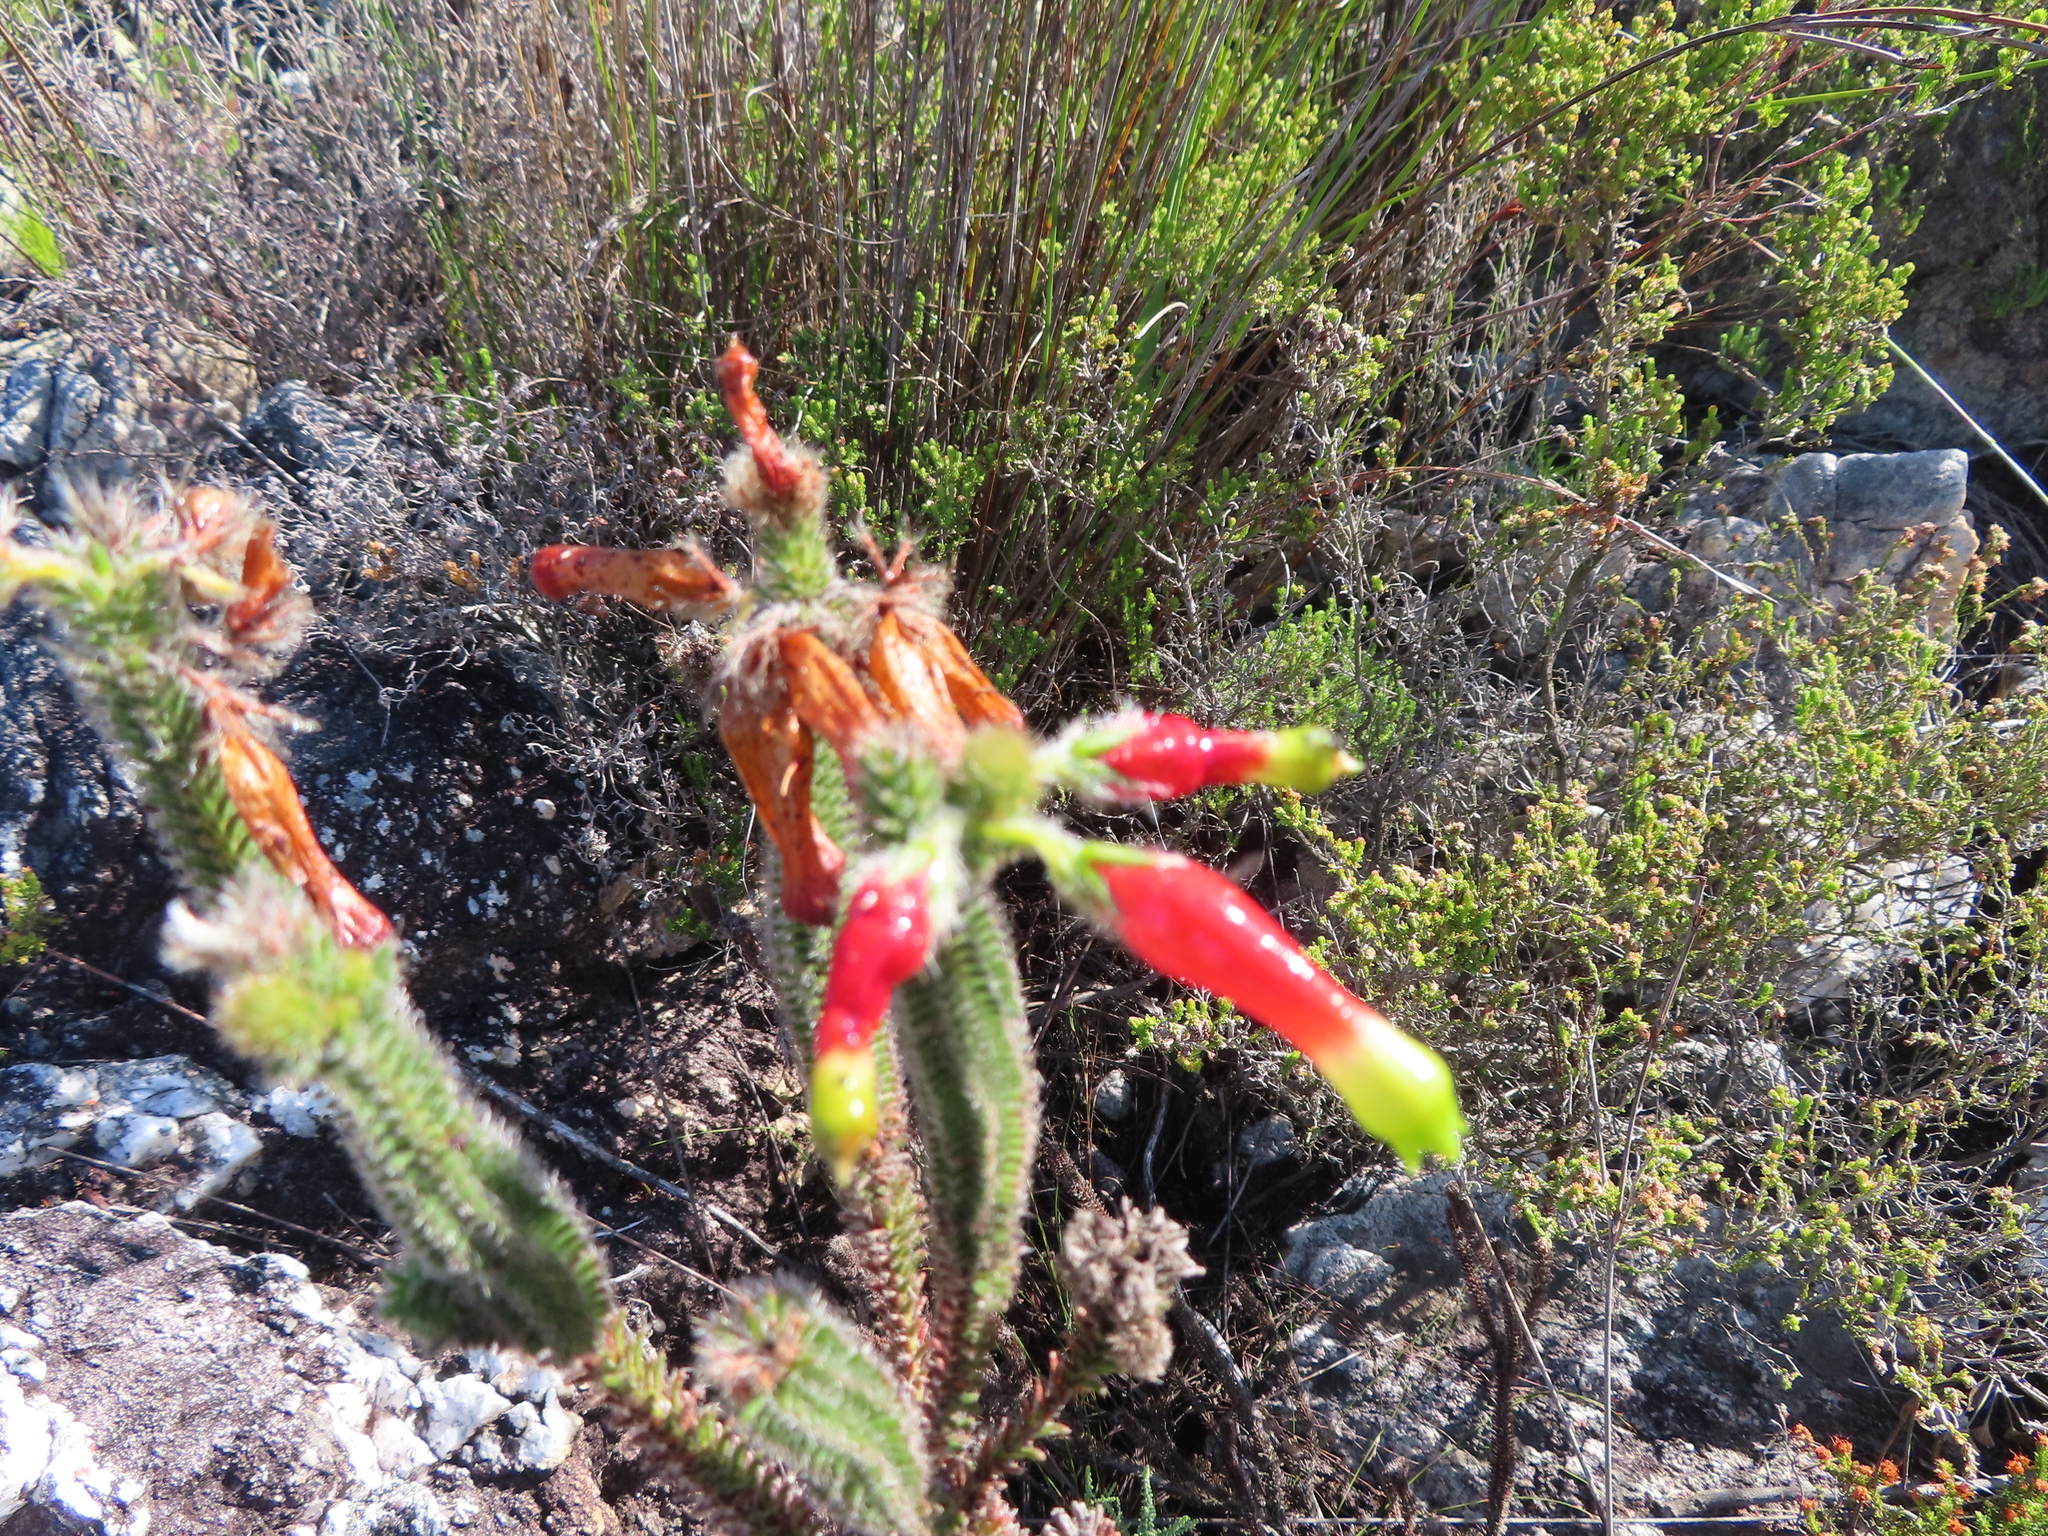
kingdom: Plantae
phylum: Tracheophyta
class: Magnoliopsida
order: Ericales
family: Ericaceae
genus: Erica
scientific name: Erica massonii
